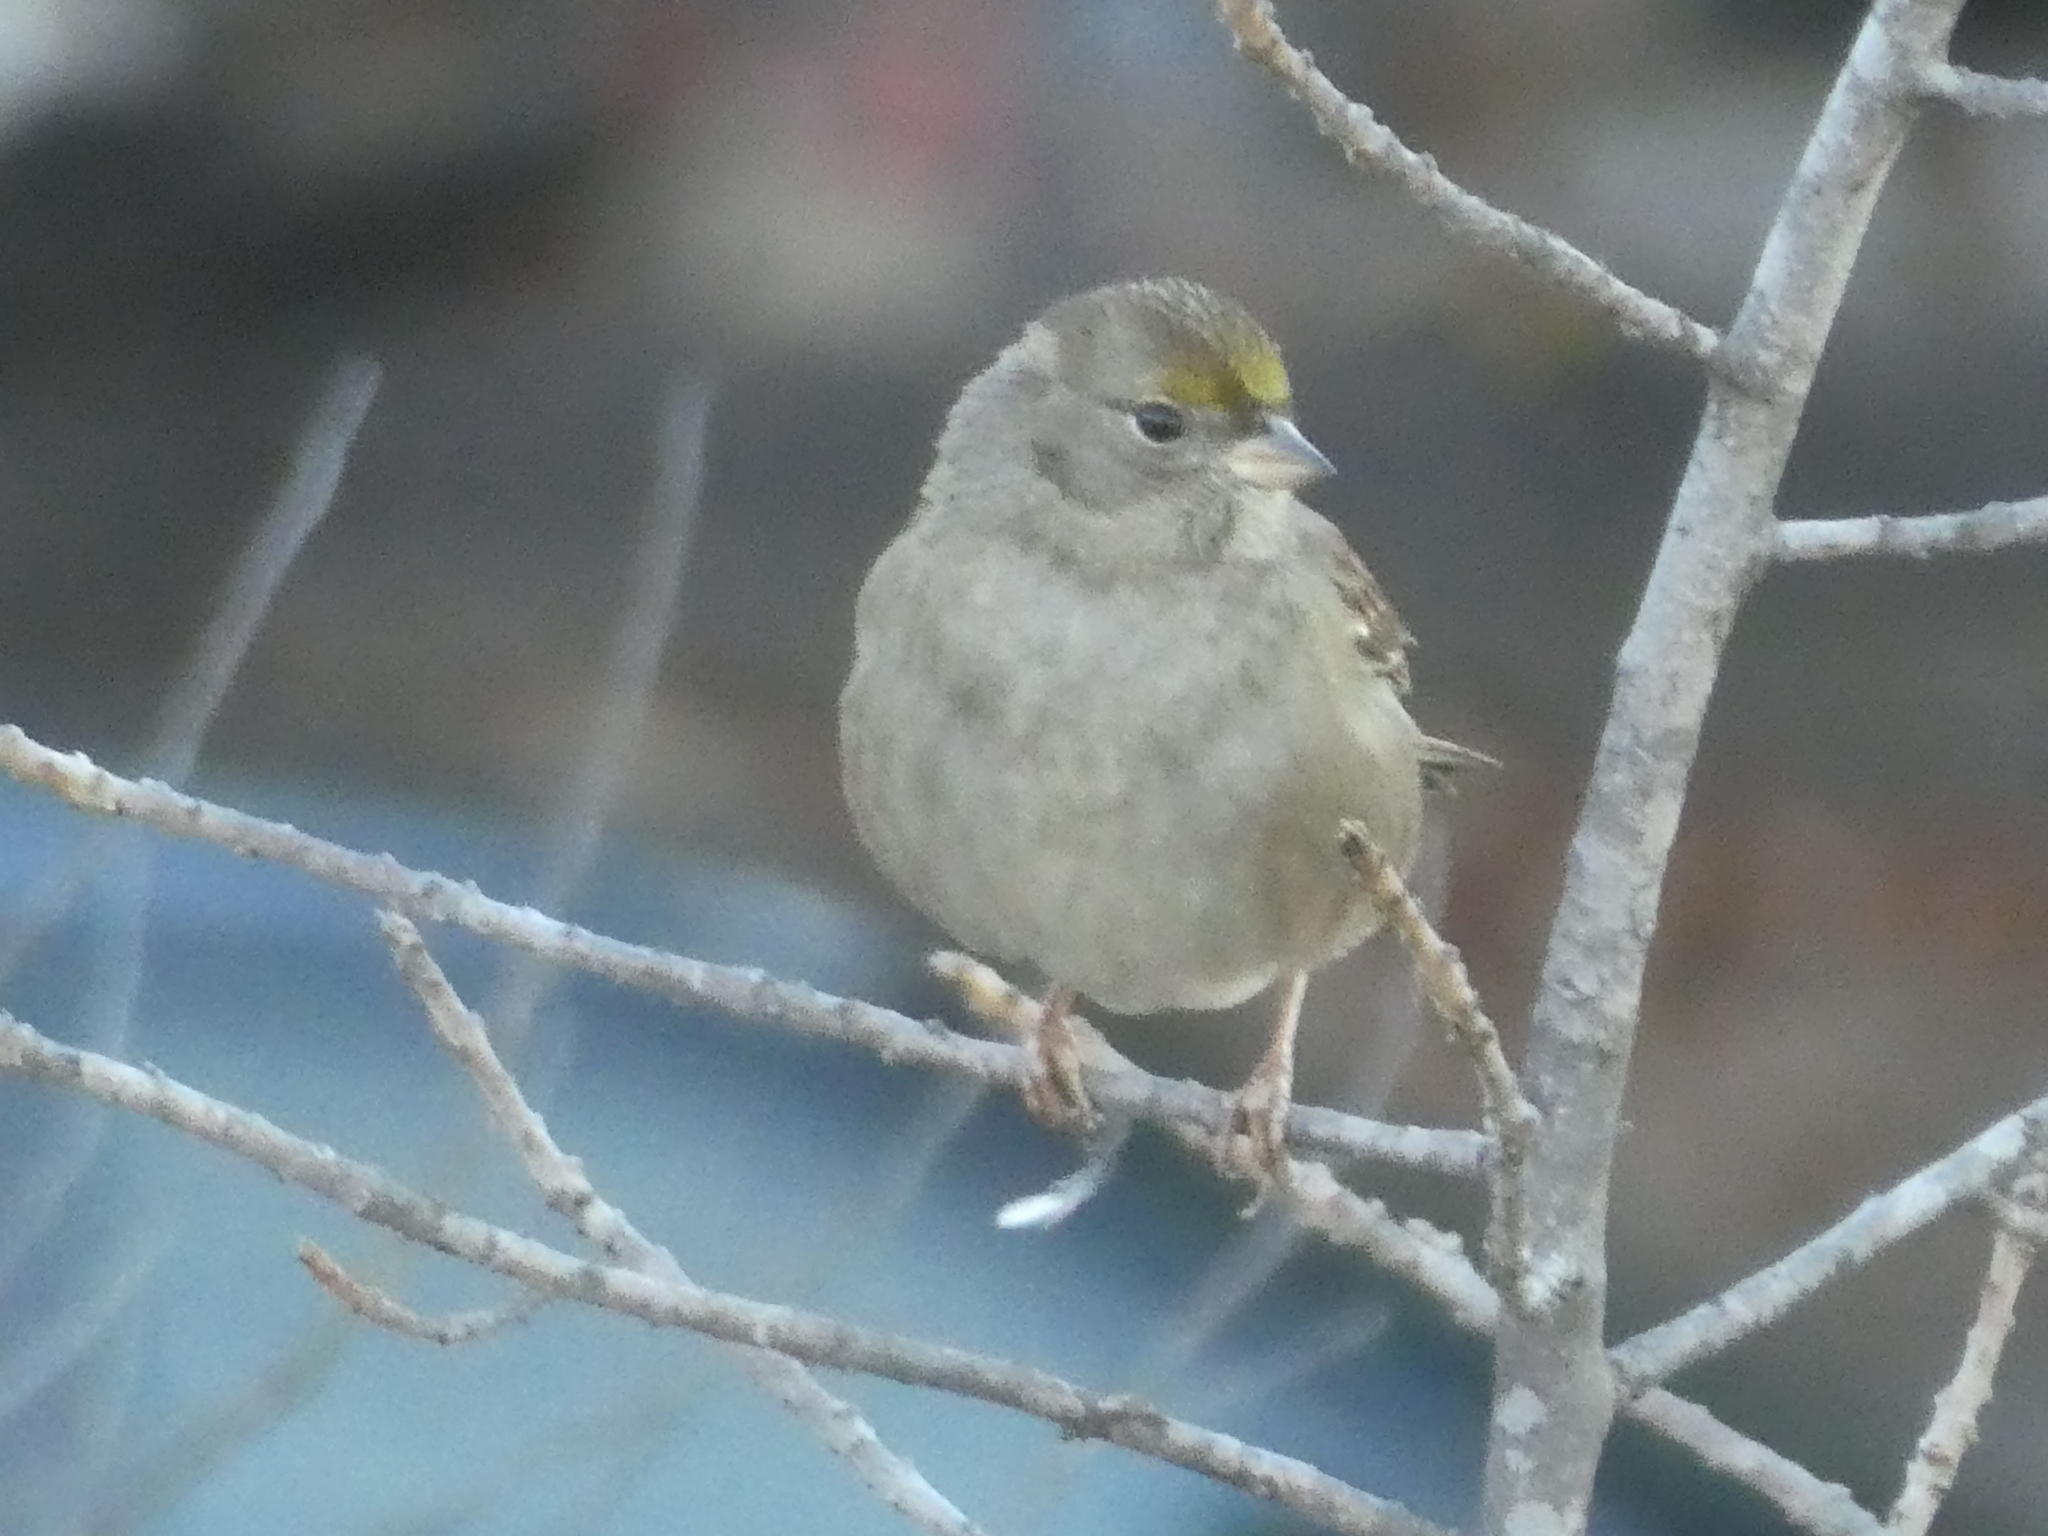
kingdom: Animalia
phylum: Chordata
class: Aves
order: Passeriformes
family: Passerellidae
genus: Zonotrichia
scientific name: Zonotrichia atricapilla
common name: Golden-crowned sparrow
